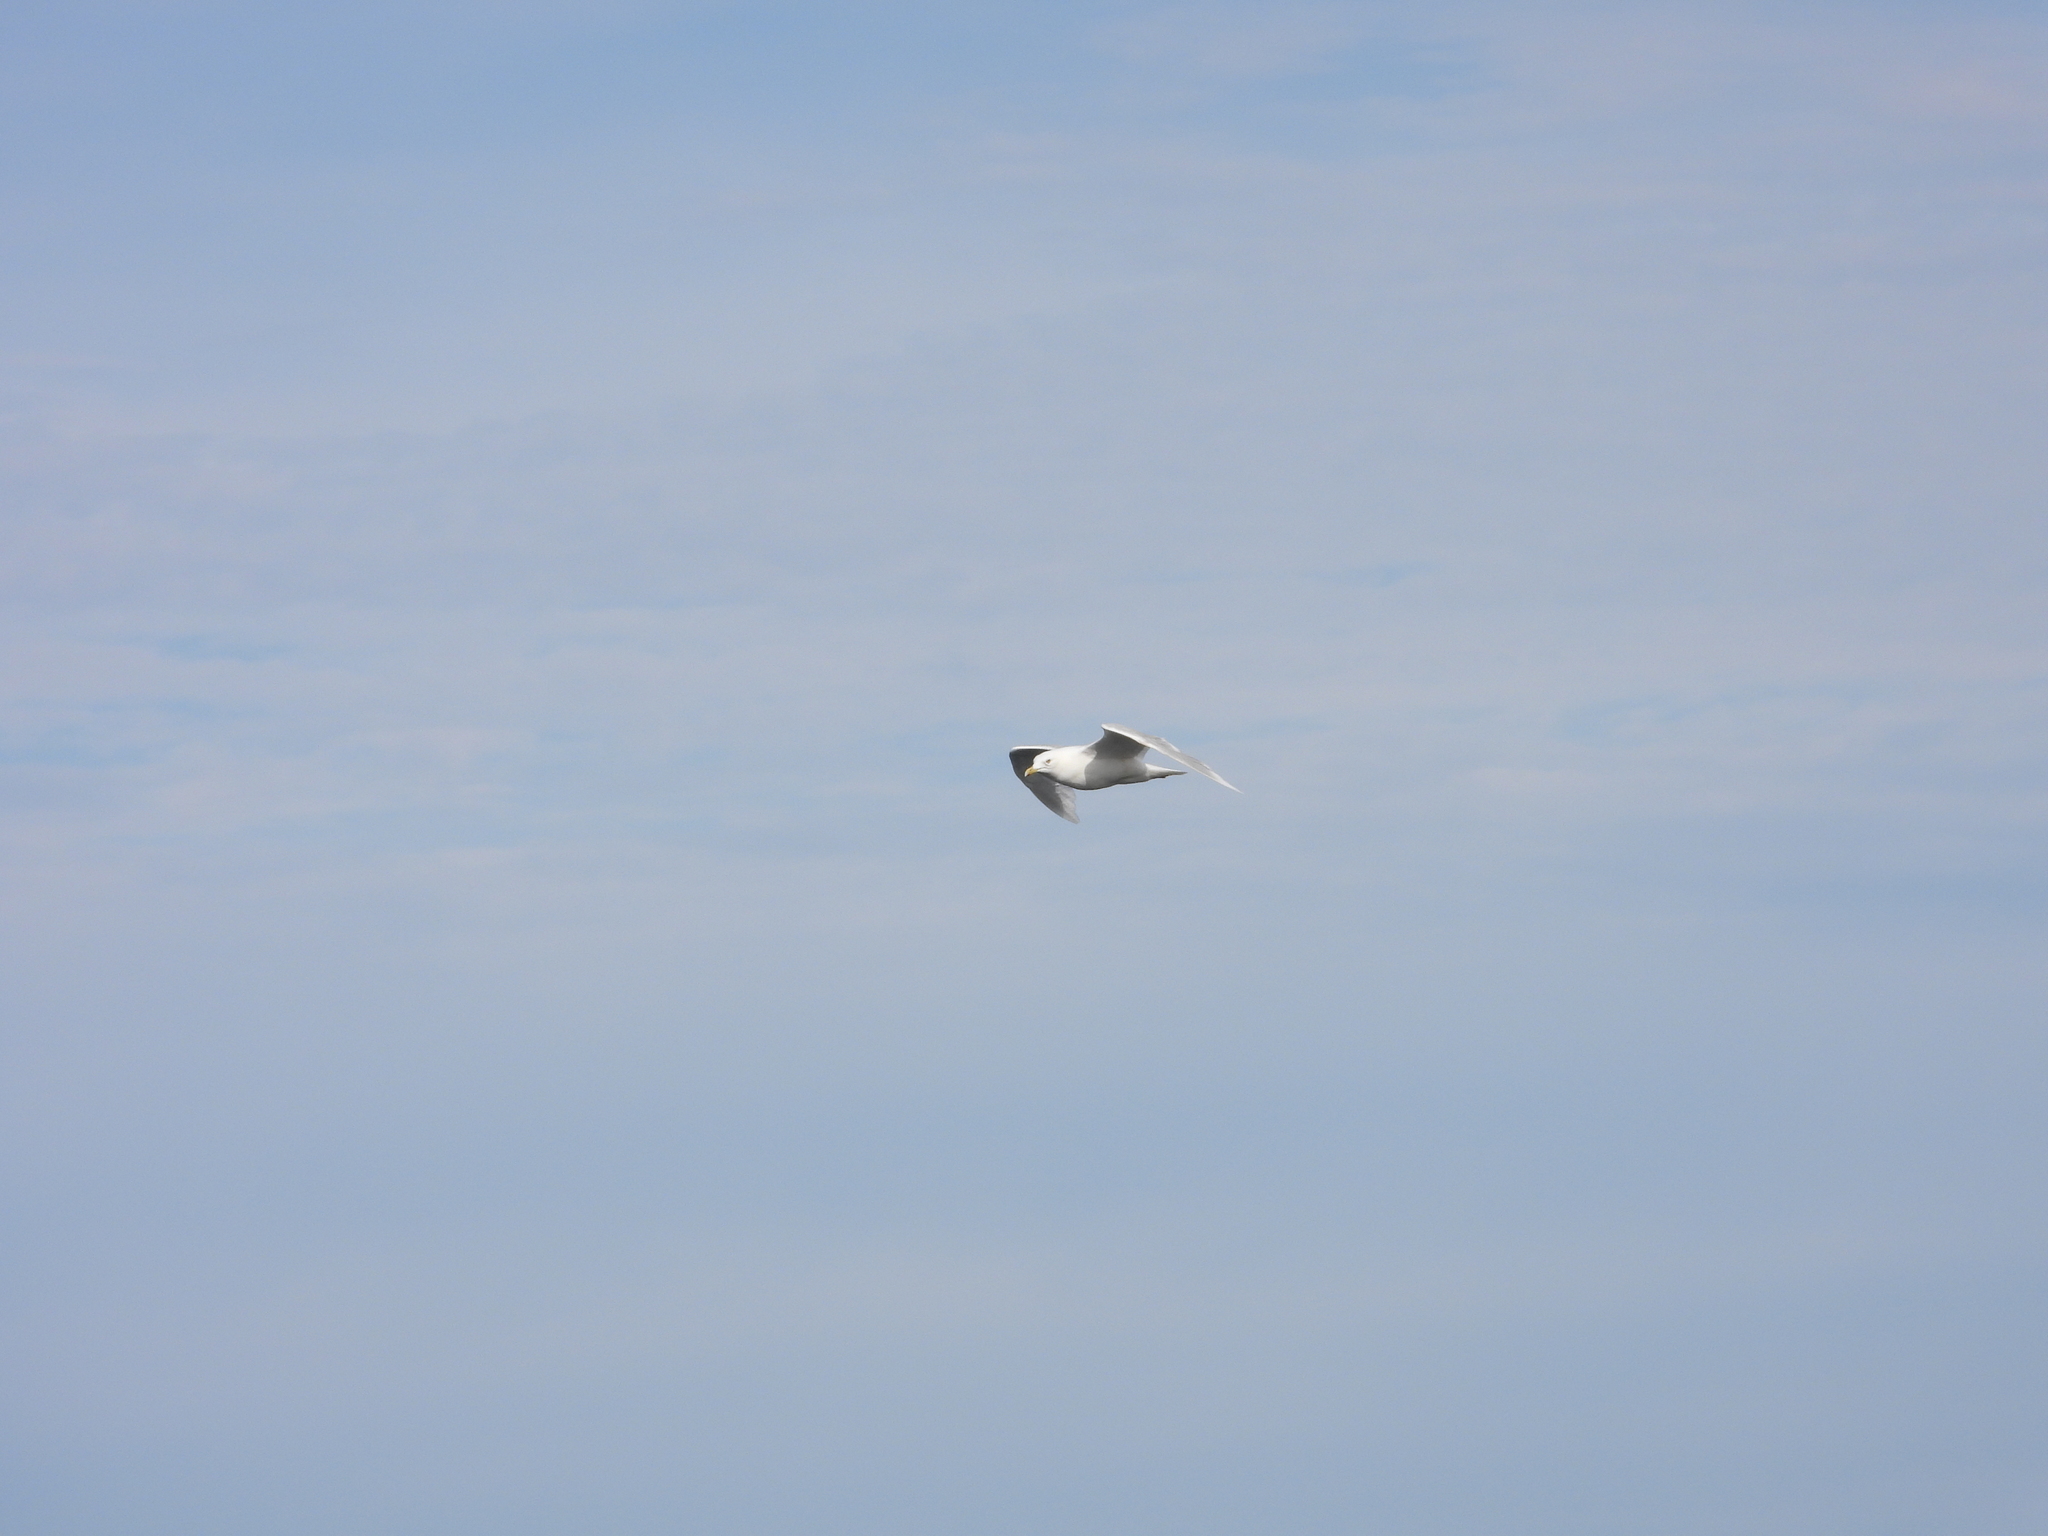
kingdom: Animalia
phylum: Chordata
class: Aves
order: Charadriiformes
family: Laridae
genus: Larus
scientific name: Larus hyperboreus
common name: Glaucous gull
